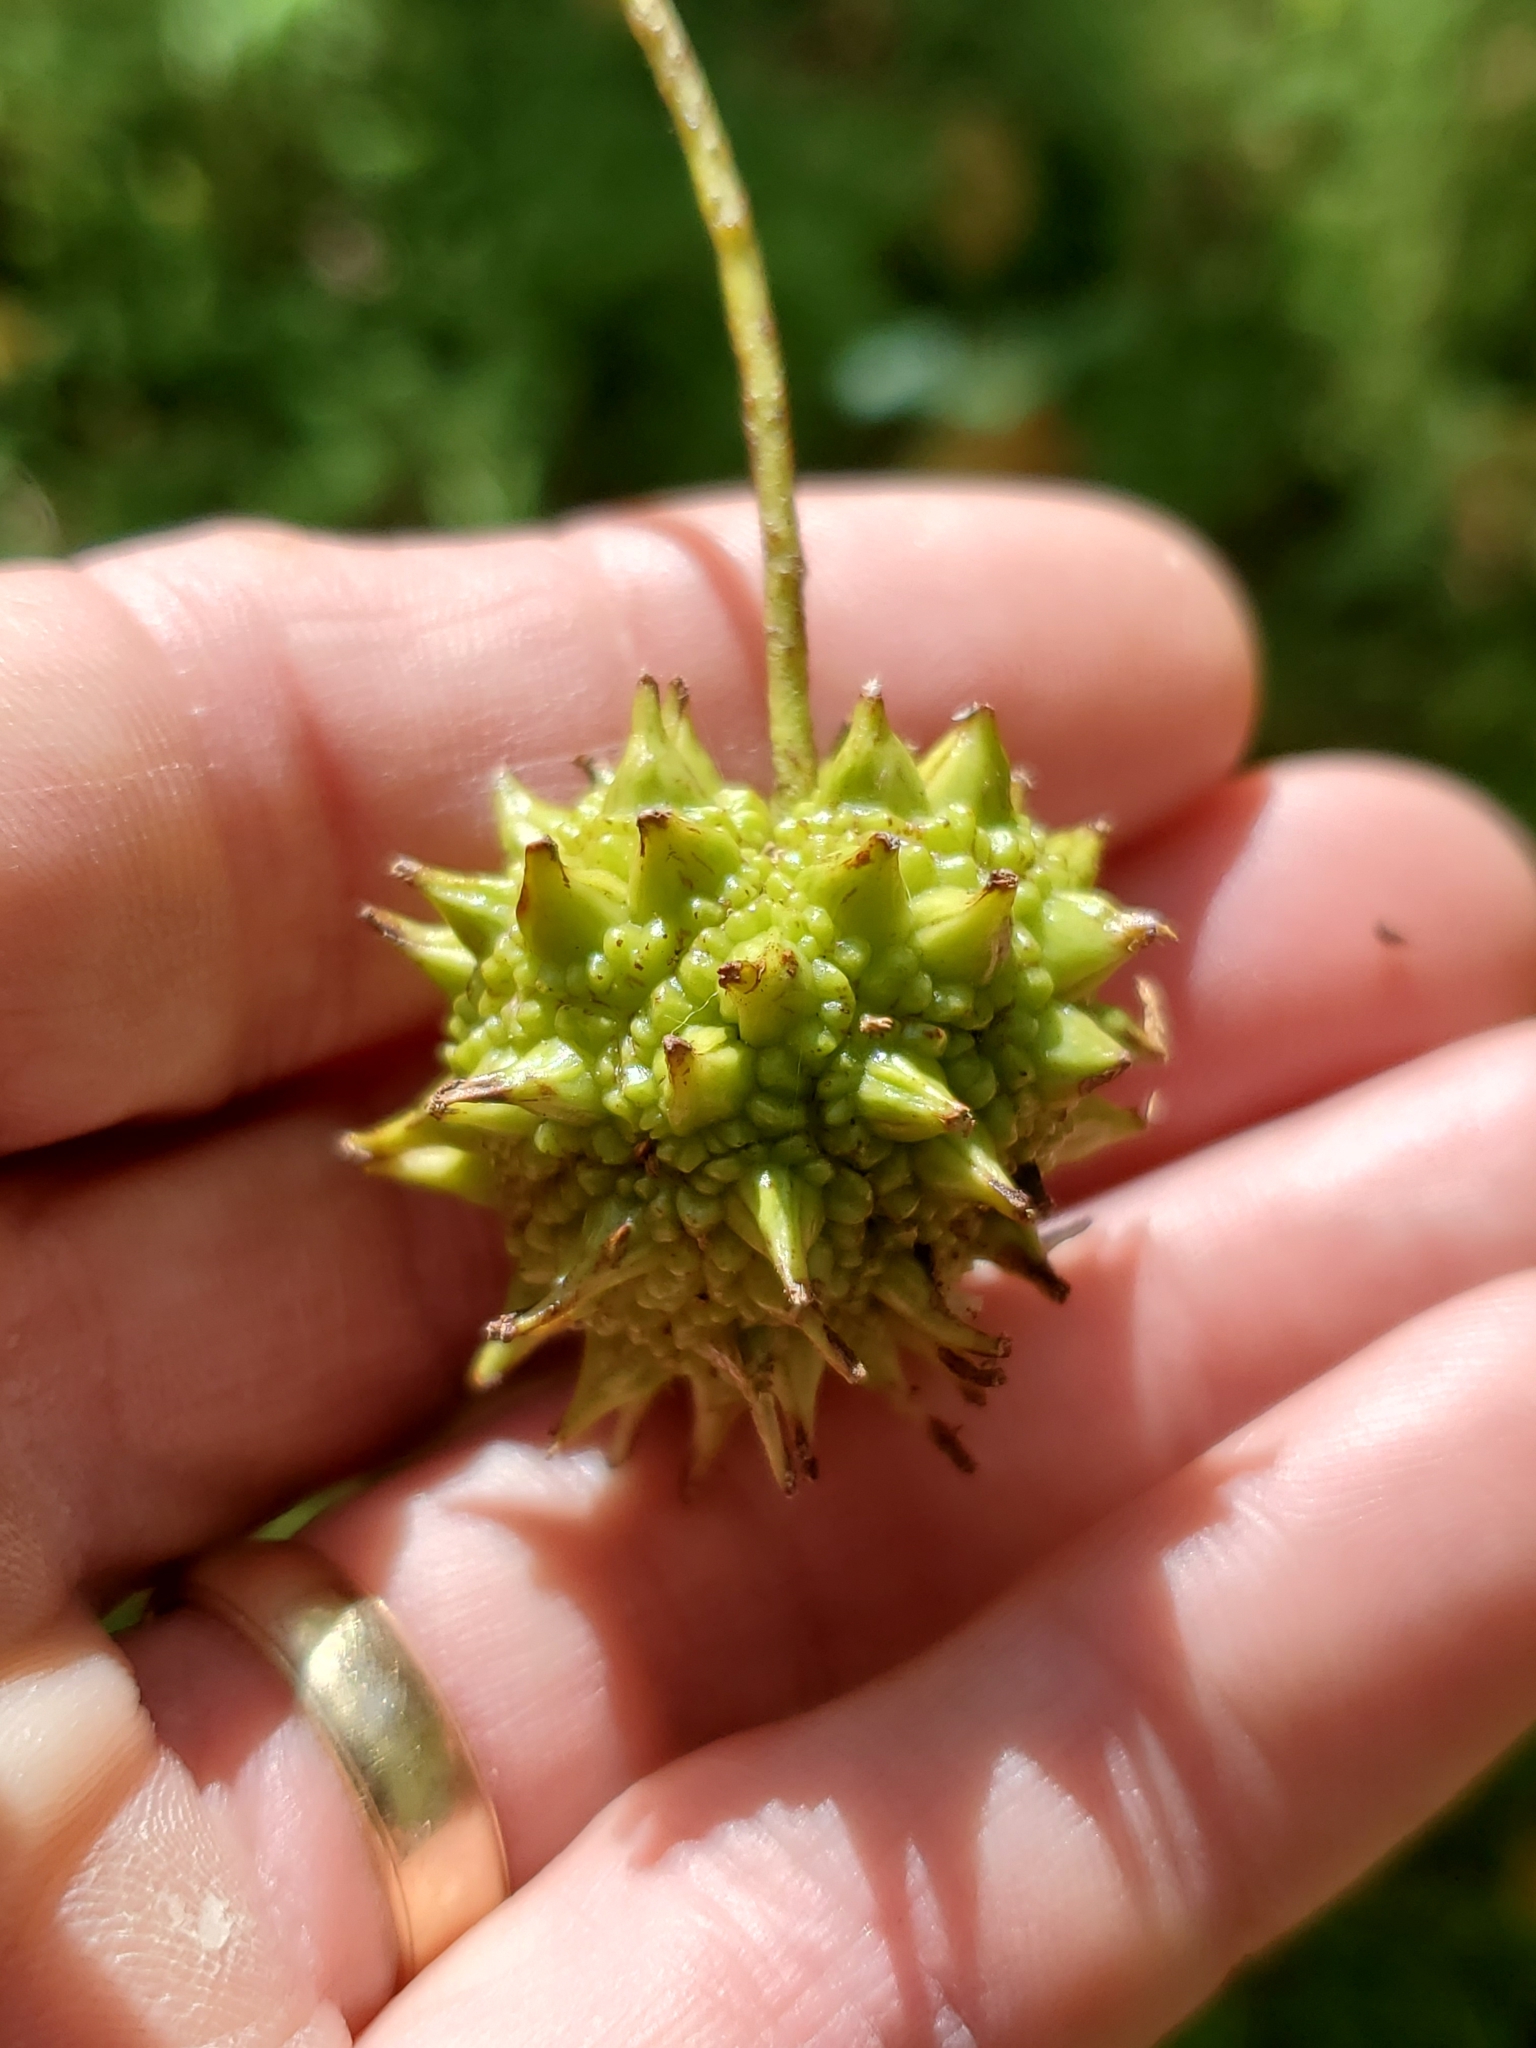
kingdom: Plantae
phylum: Tracheophyta
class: Magnoliopsida
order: Saxifragales
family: Altingiaceae
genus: Liquidambar
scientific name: Liquidambar styraciflua
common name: Sweet gum
